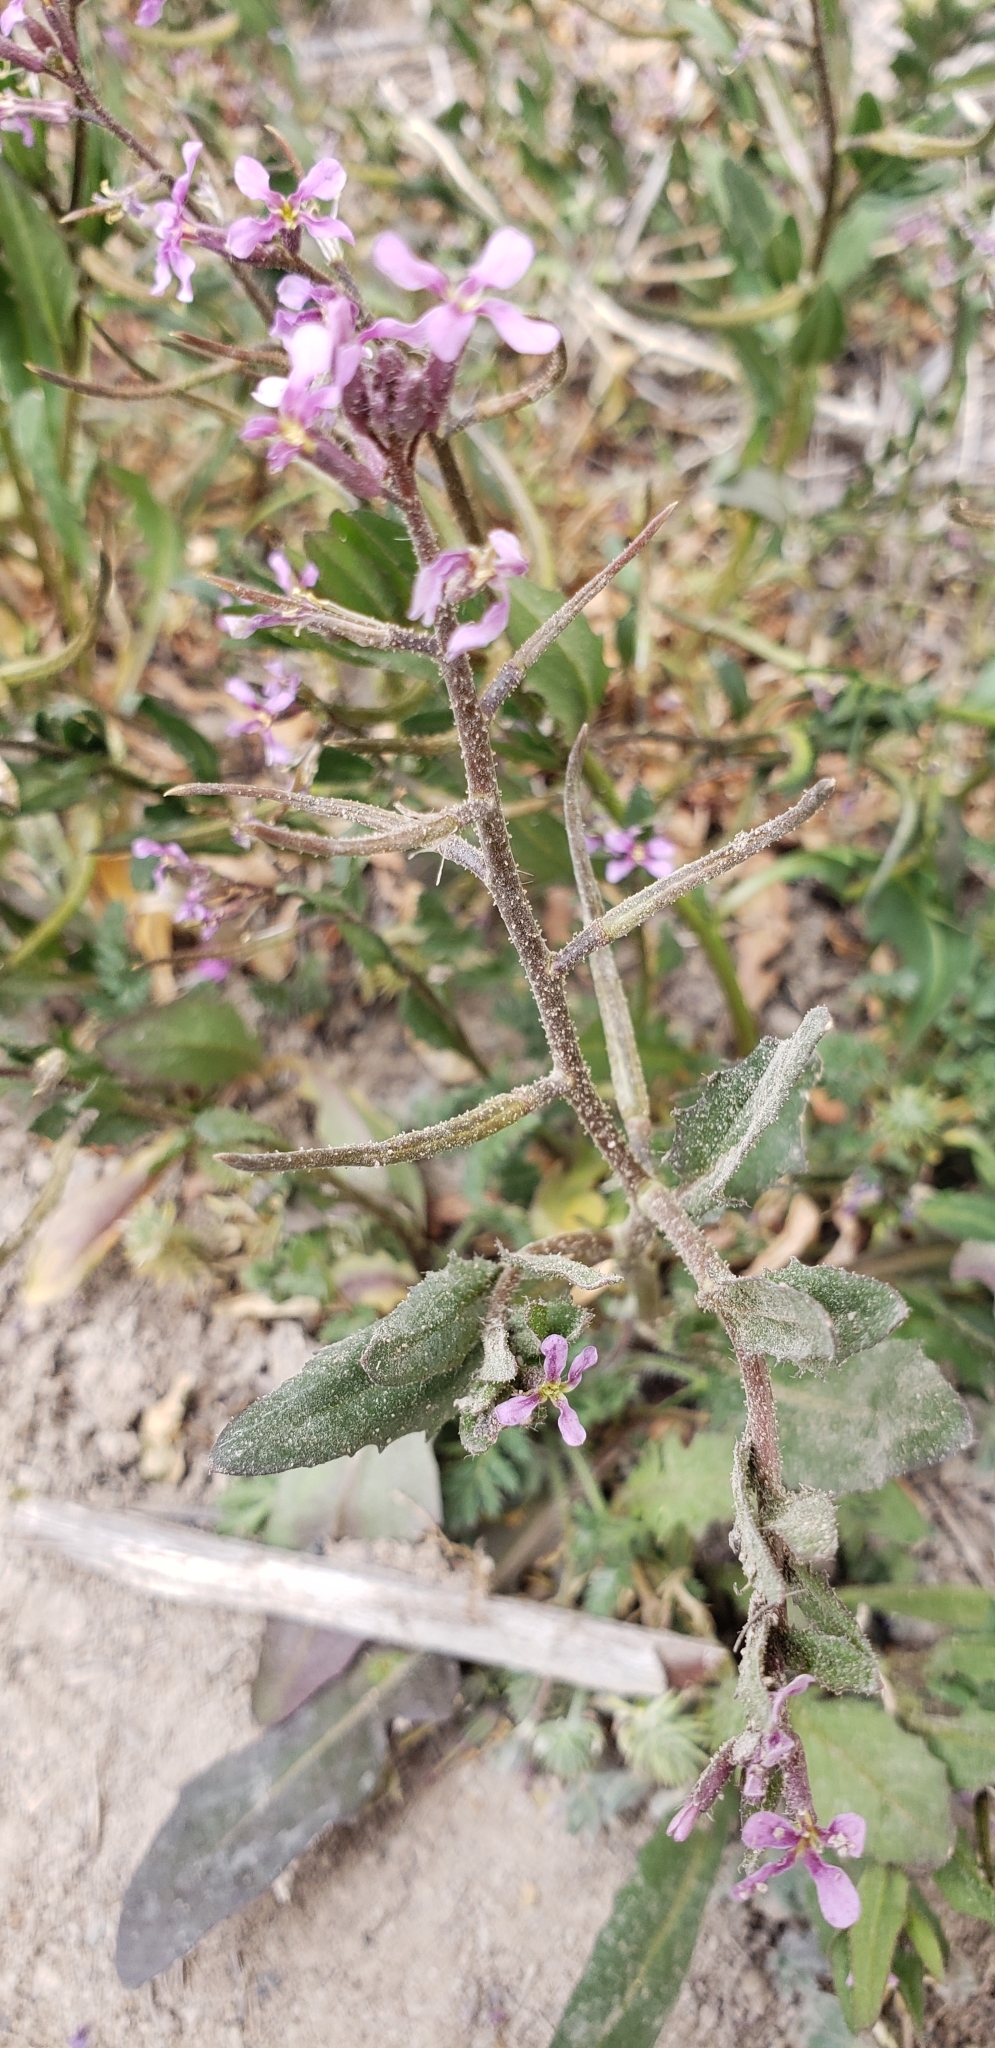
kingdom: Plantae
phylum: Tracheophyta
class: Magnoliopsida
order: Brassicales
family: Brassicaceae
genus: Chorispora
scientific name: Chorispora tenella
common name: Crossflower
